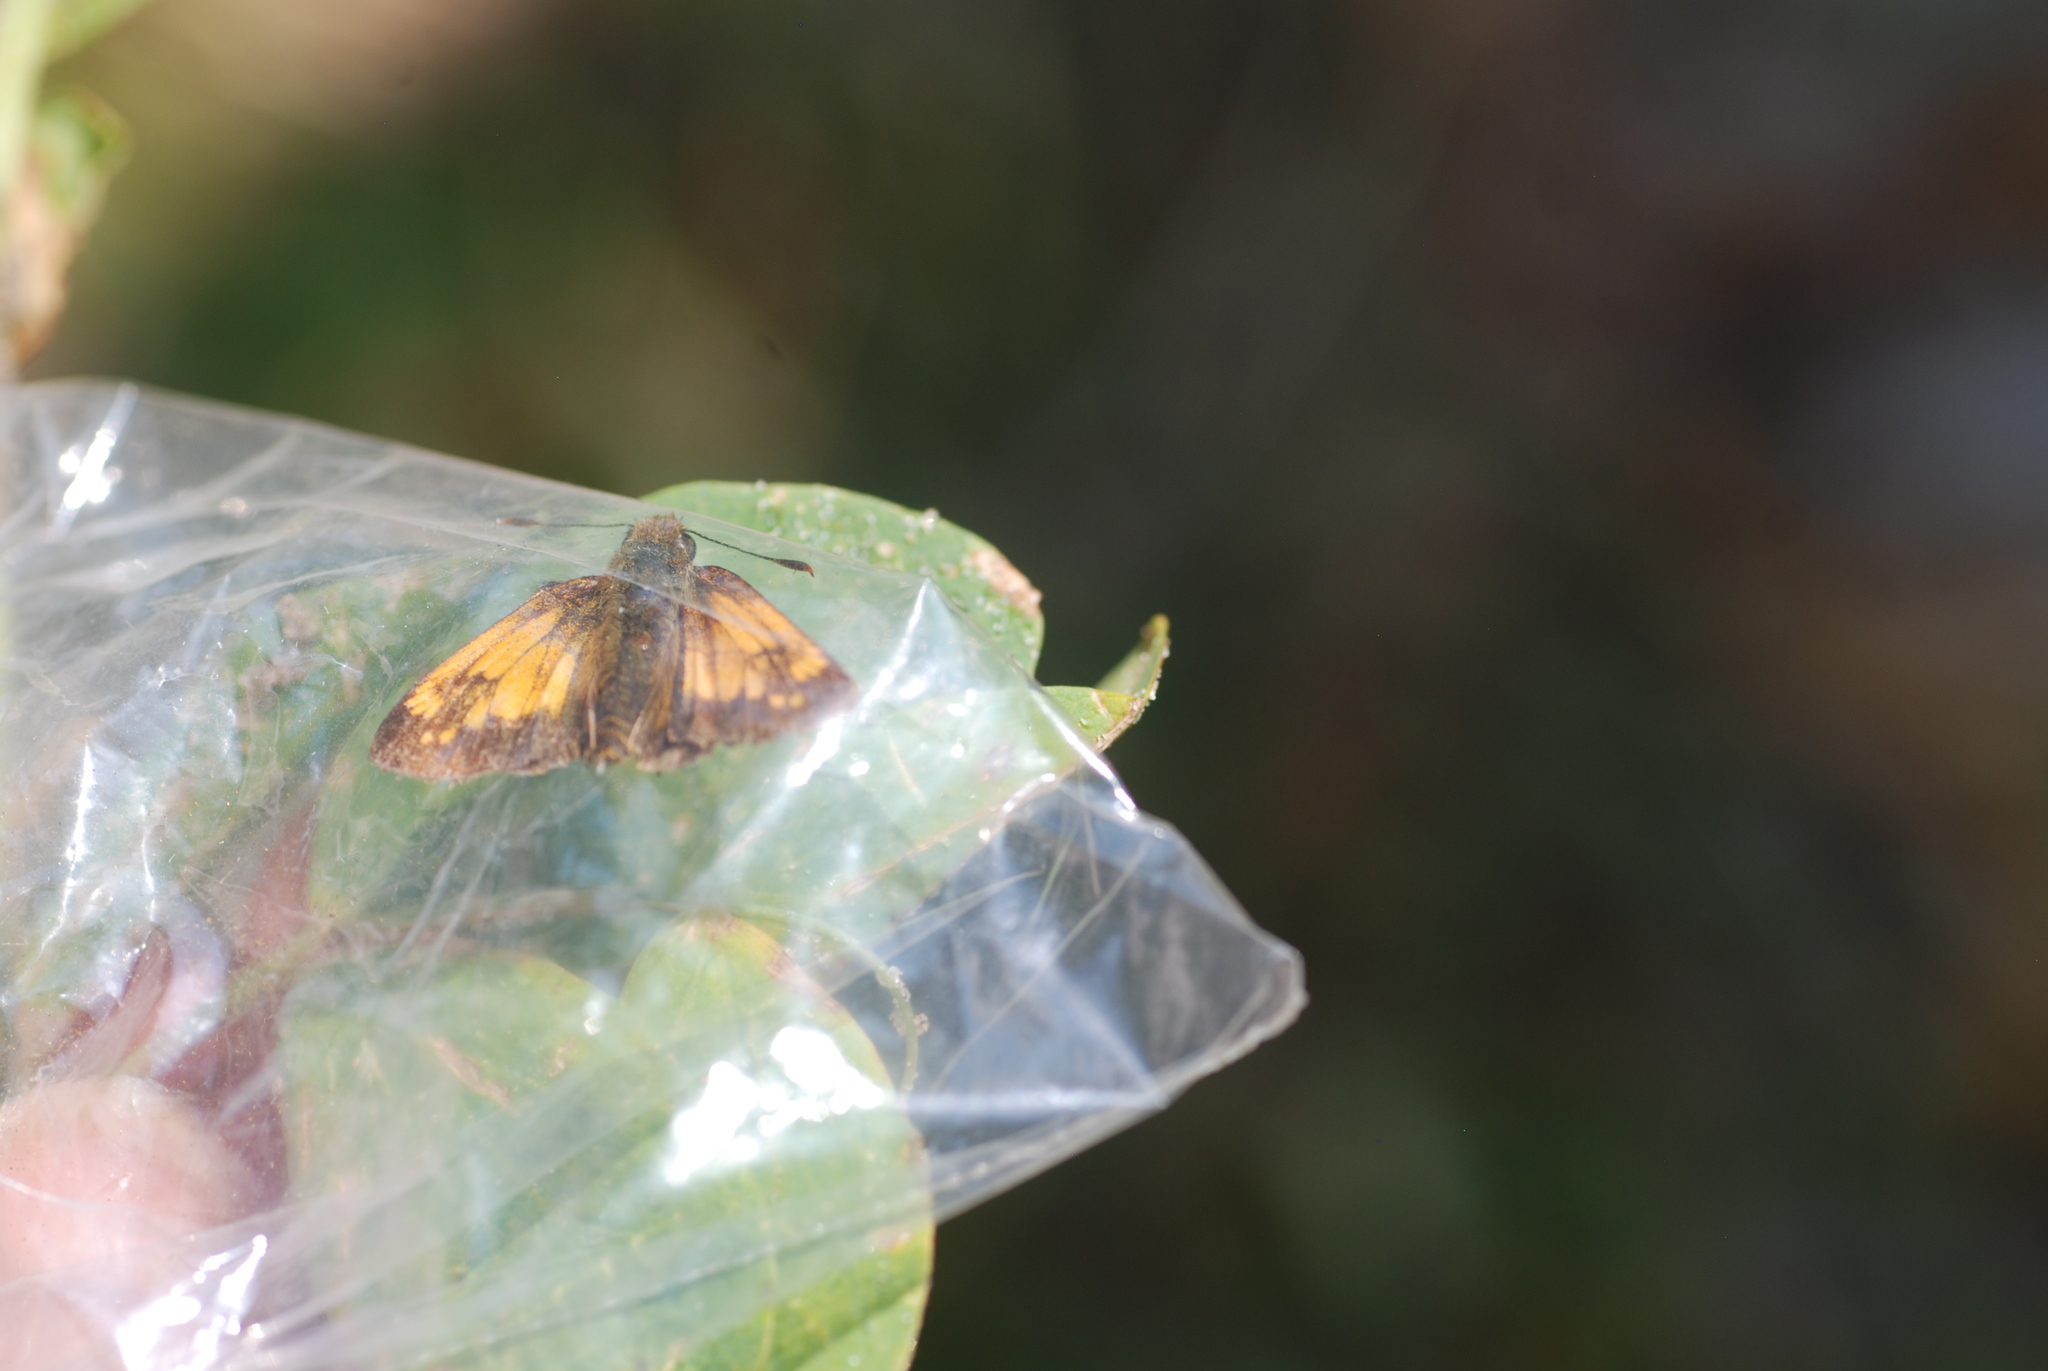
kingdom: Animalia
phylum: Arthropoda
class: Insecta
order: Lepidoptera
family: Hesperiidae
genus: Lon
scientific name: Lon hobomok
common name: Hobomok skipper
